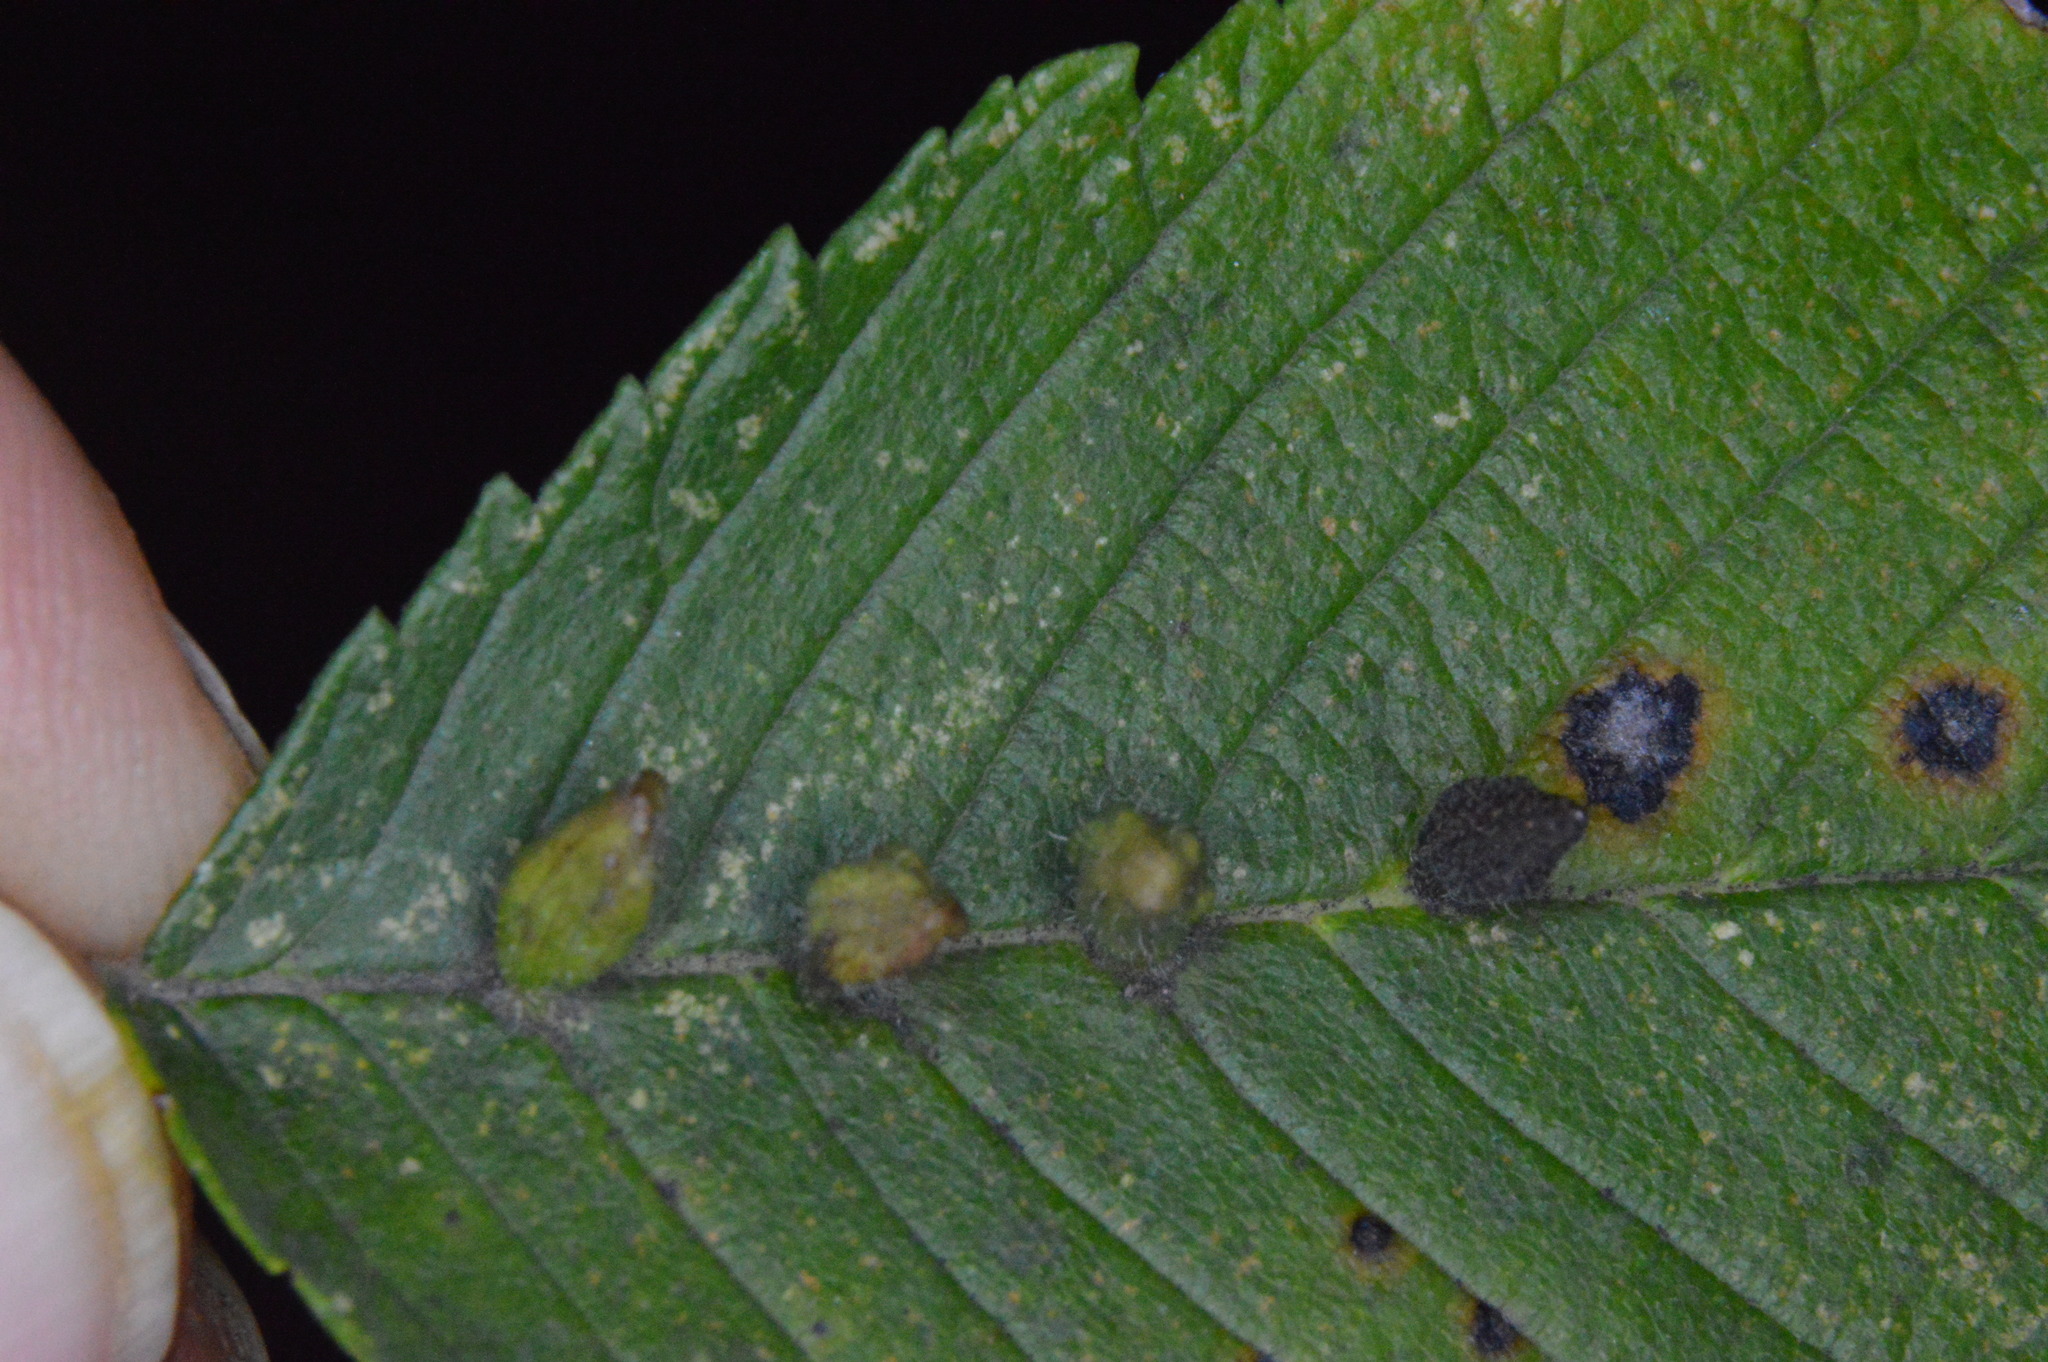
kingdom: Animalia
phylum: Arthropoda
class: Arachnida
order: Trombidiformes
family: Eriophyidae
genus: Aceria
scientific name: Aceria
